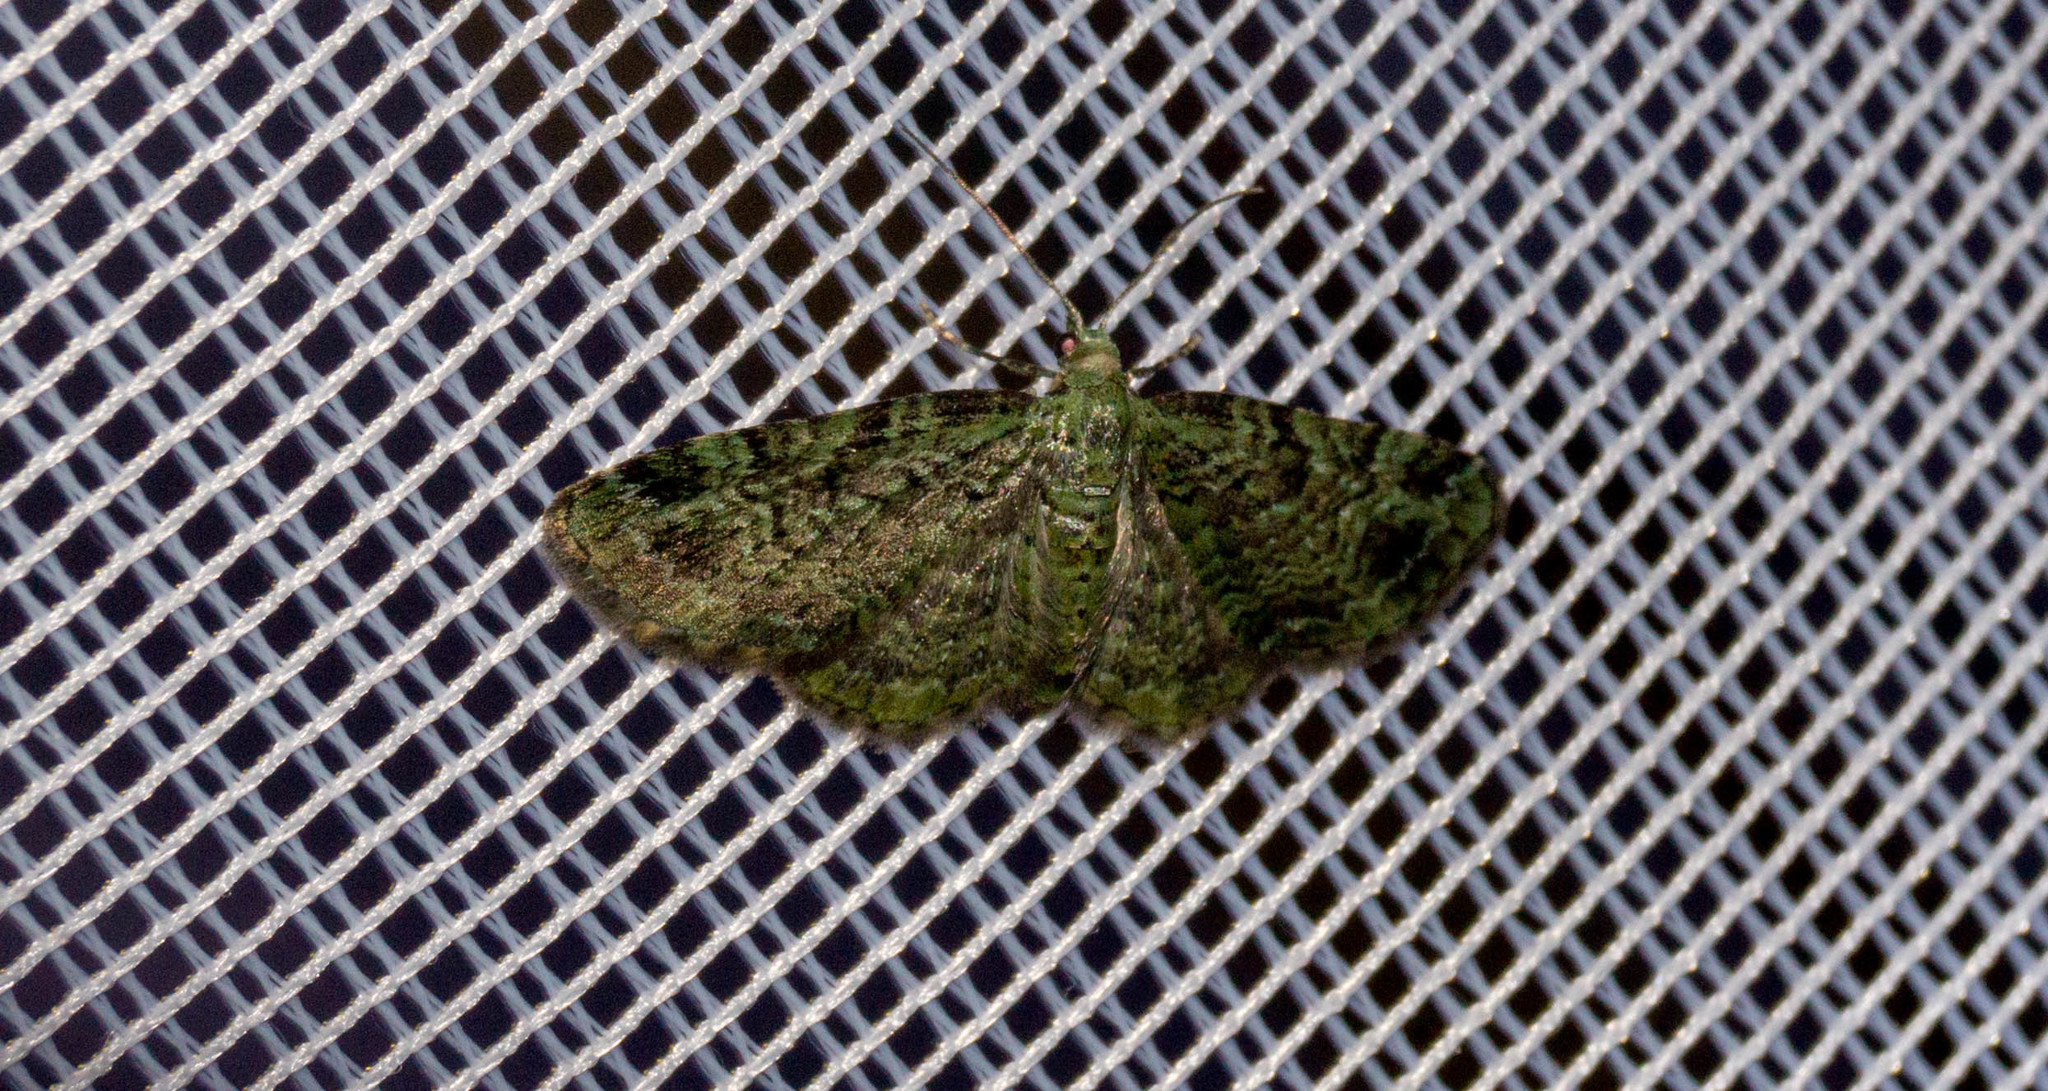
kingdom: Animalia
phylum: Arthropoda
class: Insecta
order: Lepidoptera
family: Geometridae
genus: Pasiphila
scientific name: Pasiphila rectangulata
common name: Green pug
